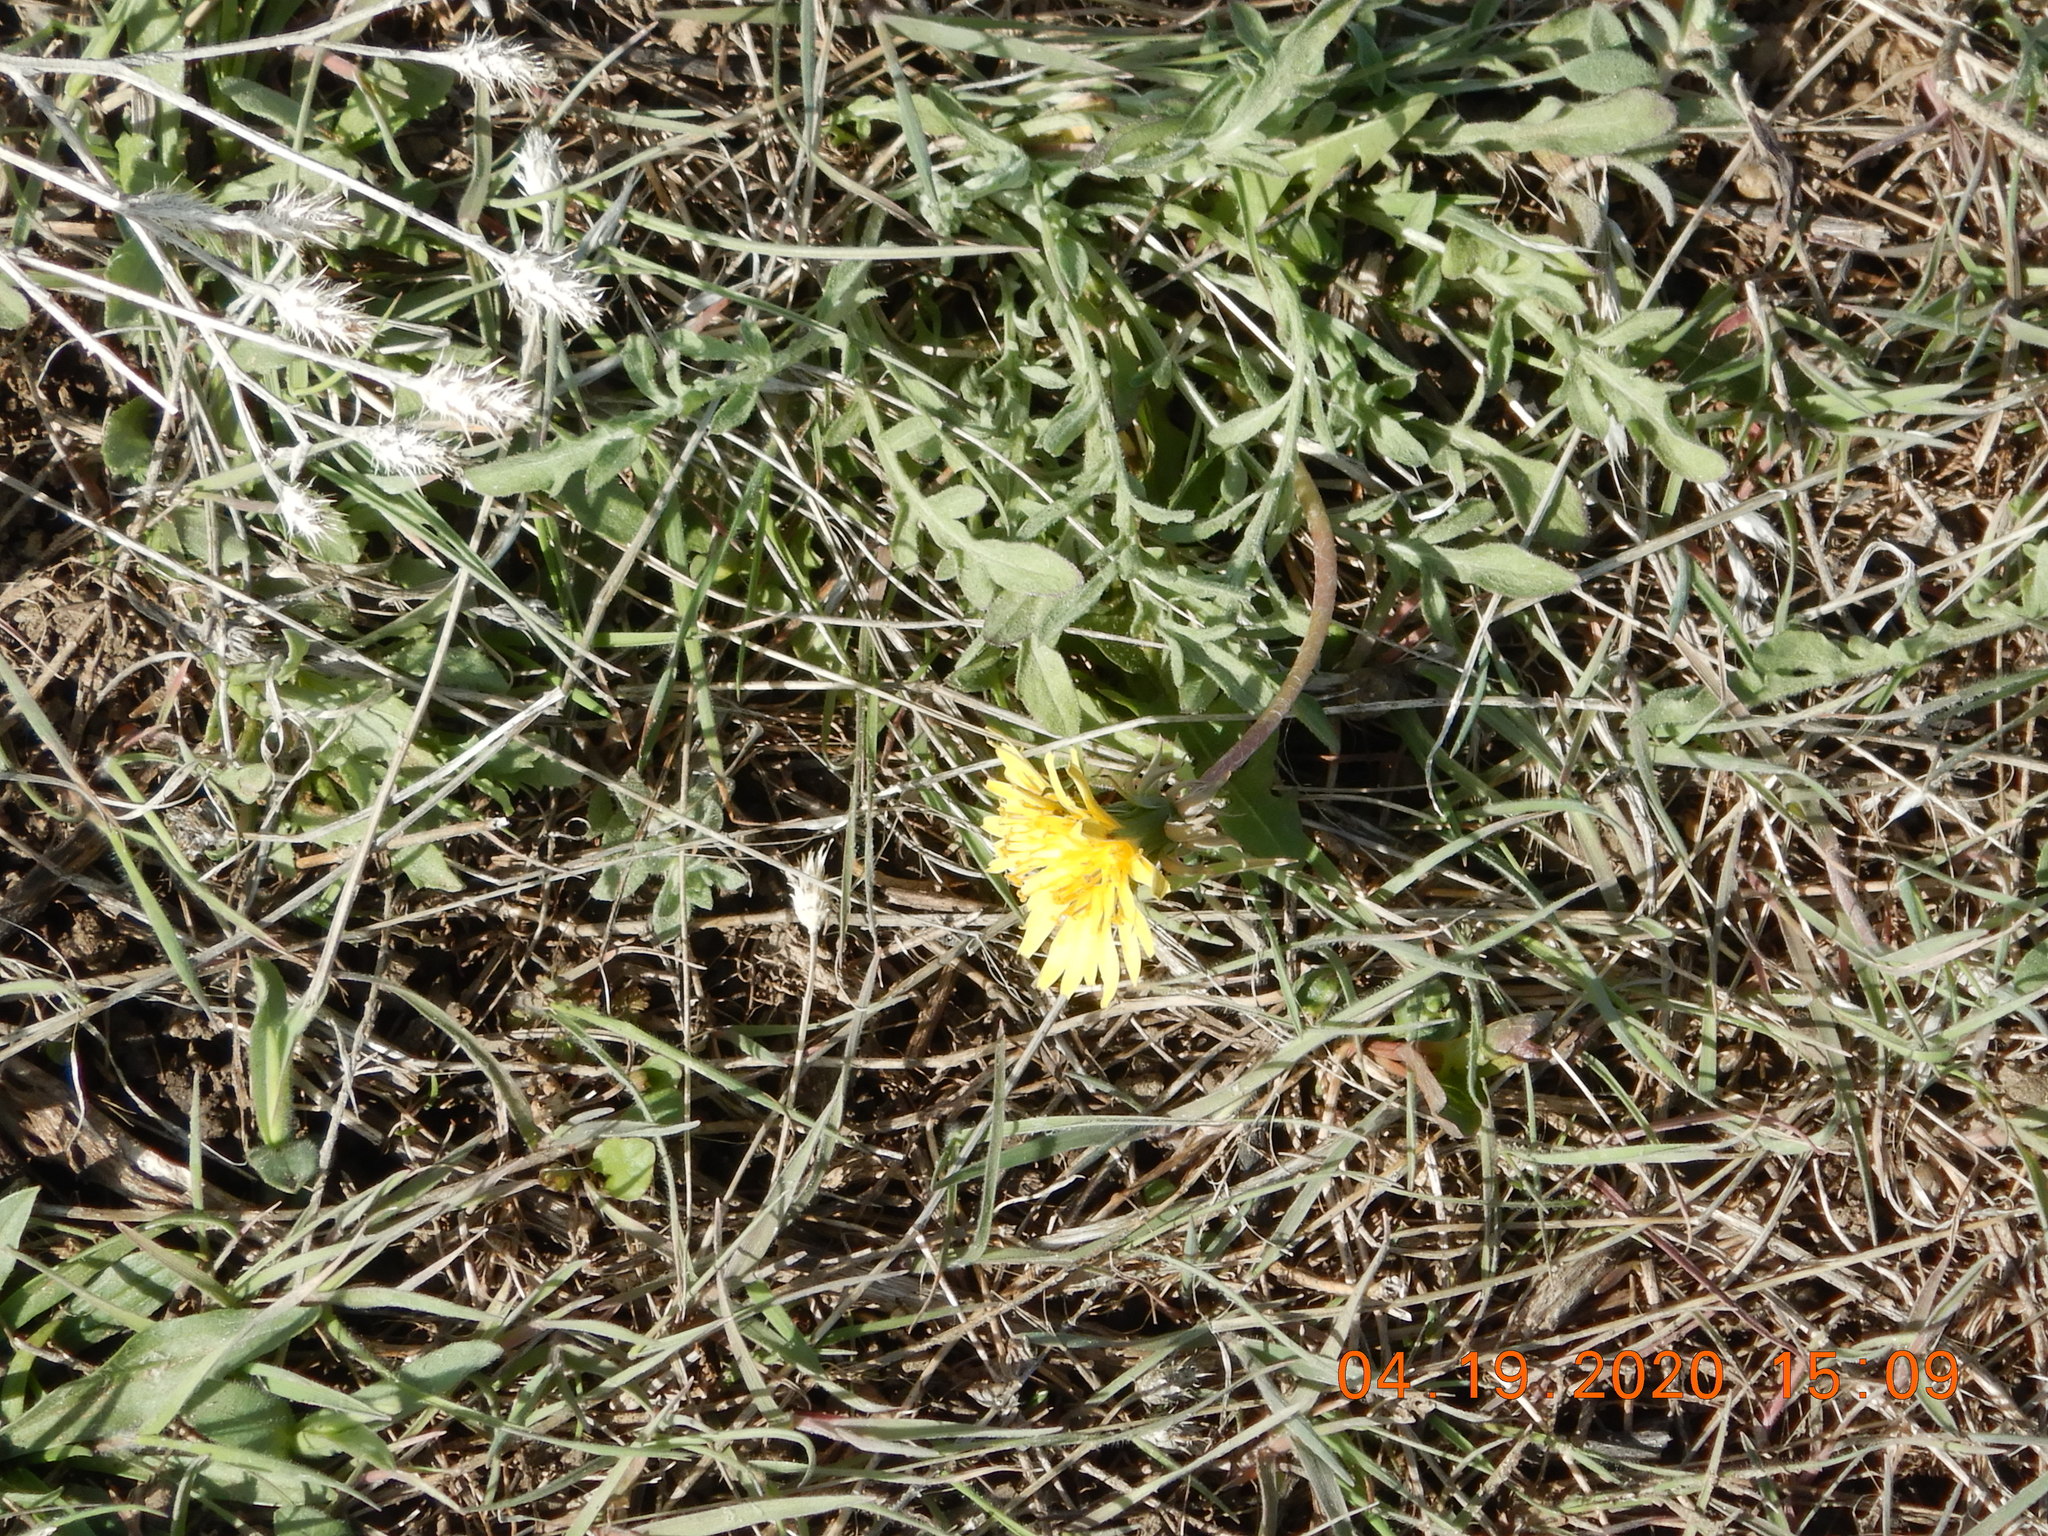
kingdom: Plantae
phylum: Tracheophyta
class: Magnoliopsida
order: Asterales
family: Asteraceae
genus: Taraxacum
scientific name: Taraxacum officinale
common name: Common dandelion
